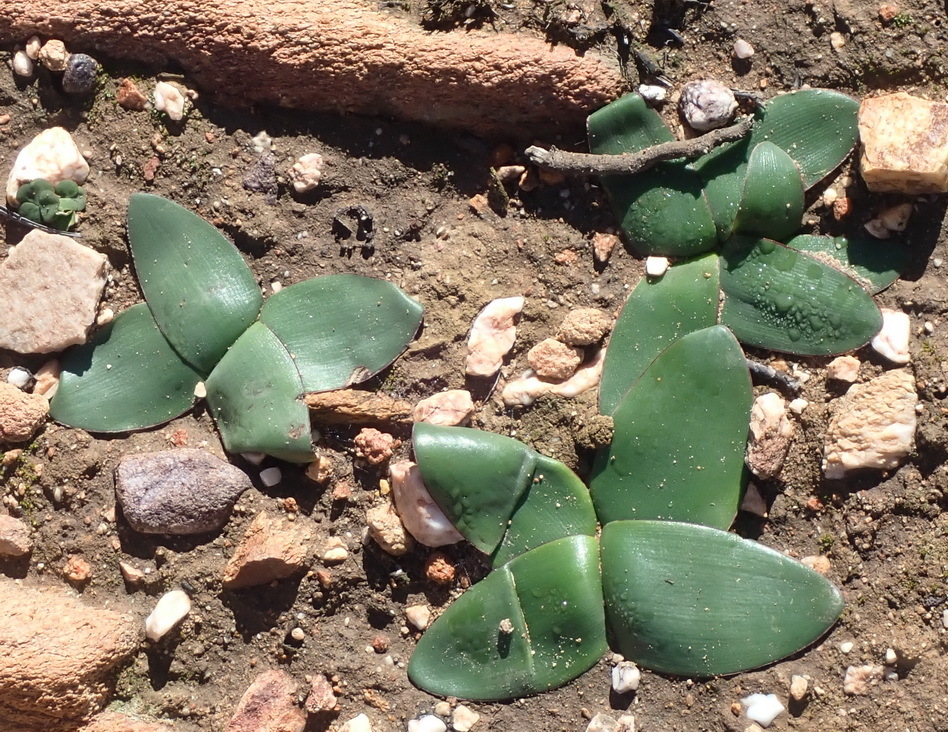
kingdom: Plantae
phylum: Tracheophyta
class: Liliopsida
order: Asparagales
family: Amaryllidaceae
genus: Brunsvigia
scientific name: Brunsvigia nervosa
